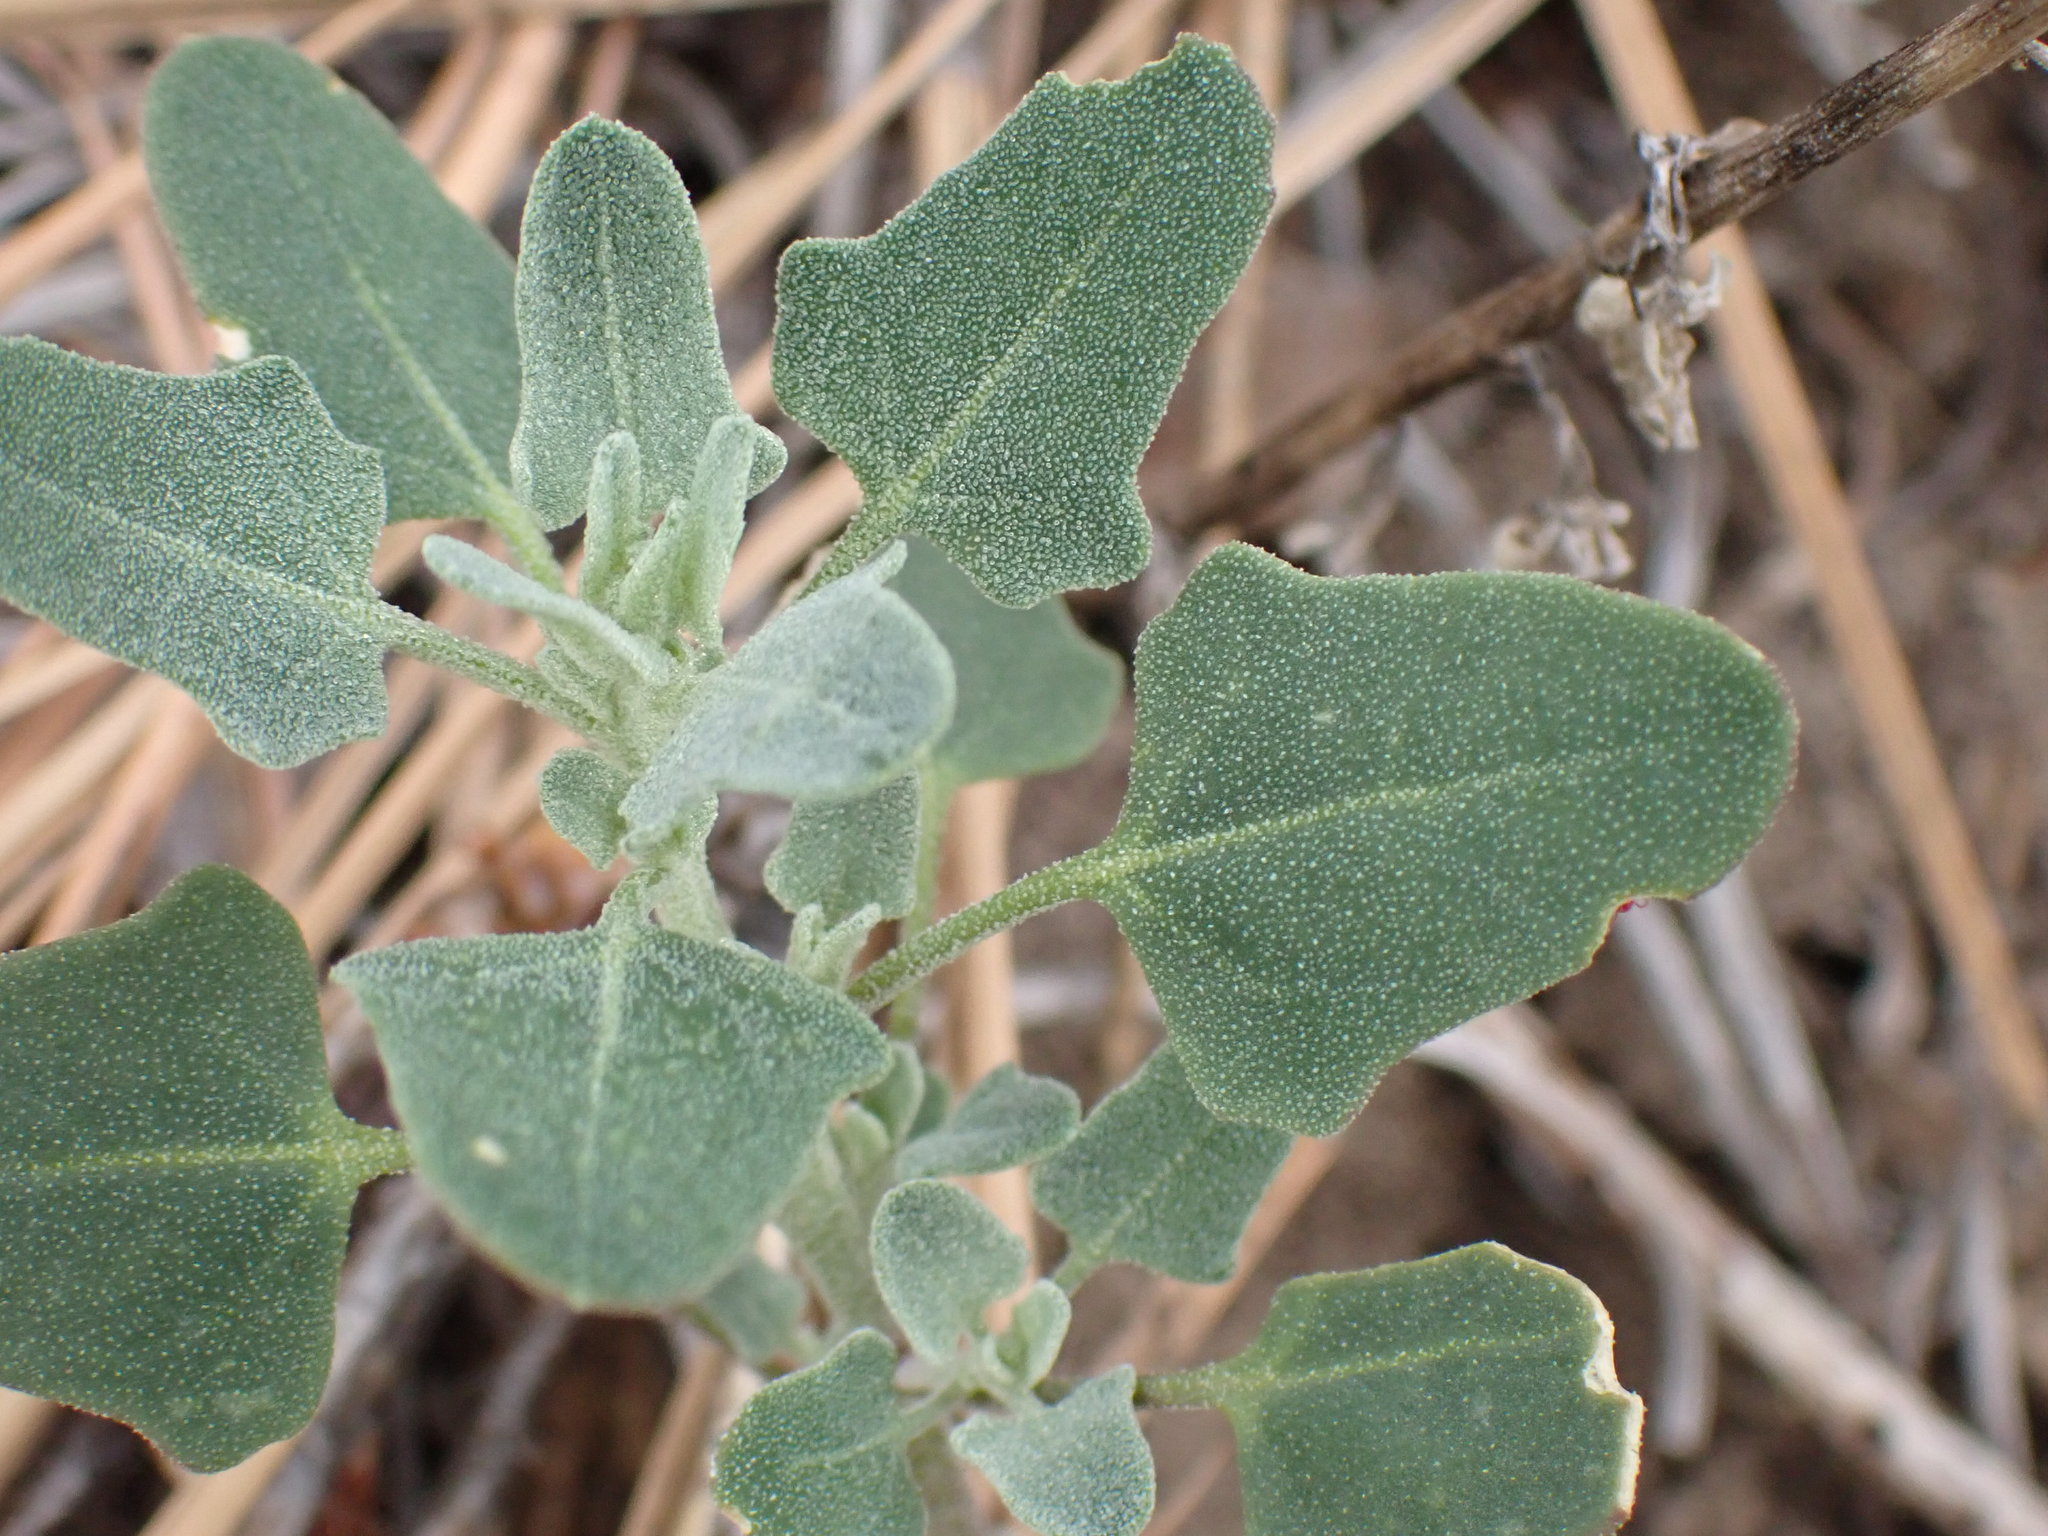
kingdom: Plantae
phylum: Tracheophyta
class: Magnoliopsida
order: Caryophyllales
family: Amaranthaceae
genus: Chenopodium
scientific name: Chenopodium album
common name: Fat-hen
